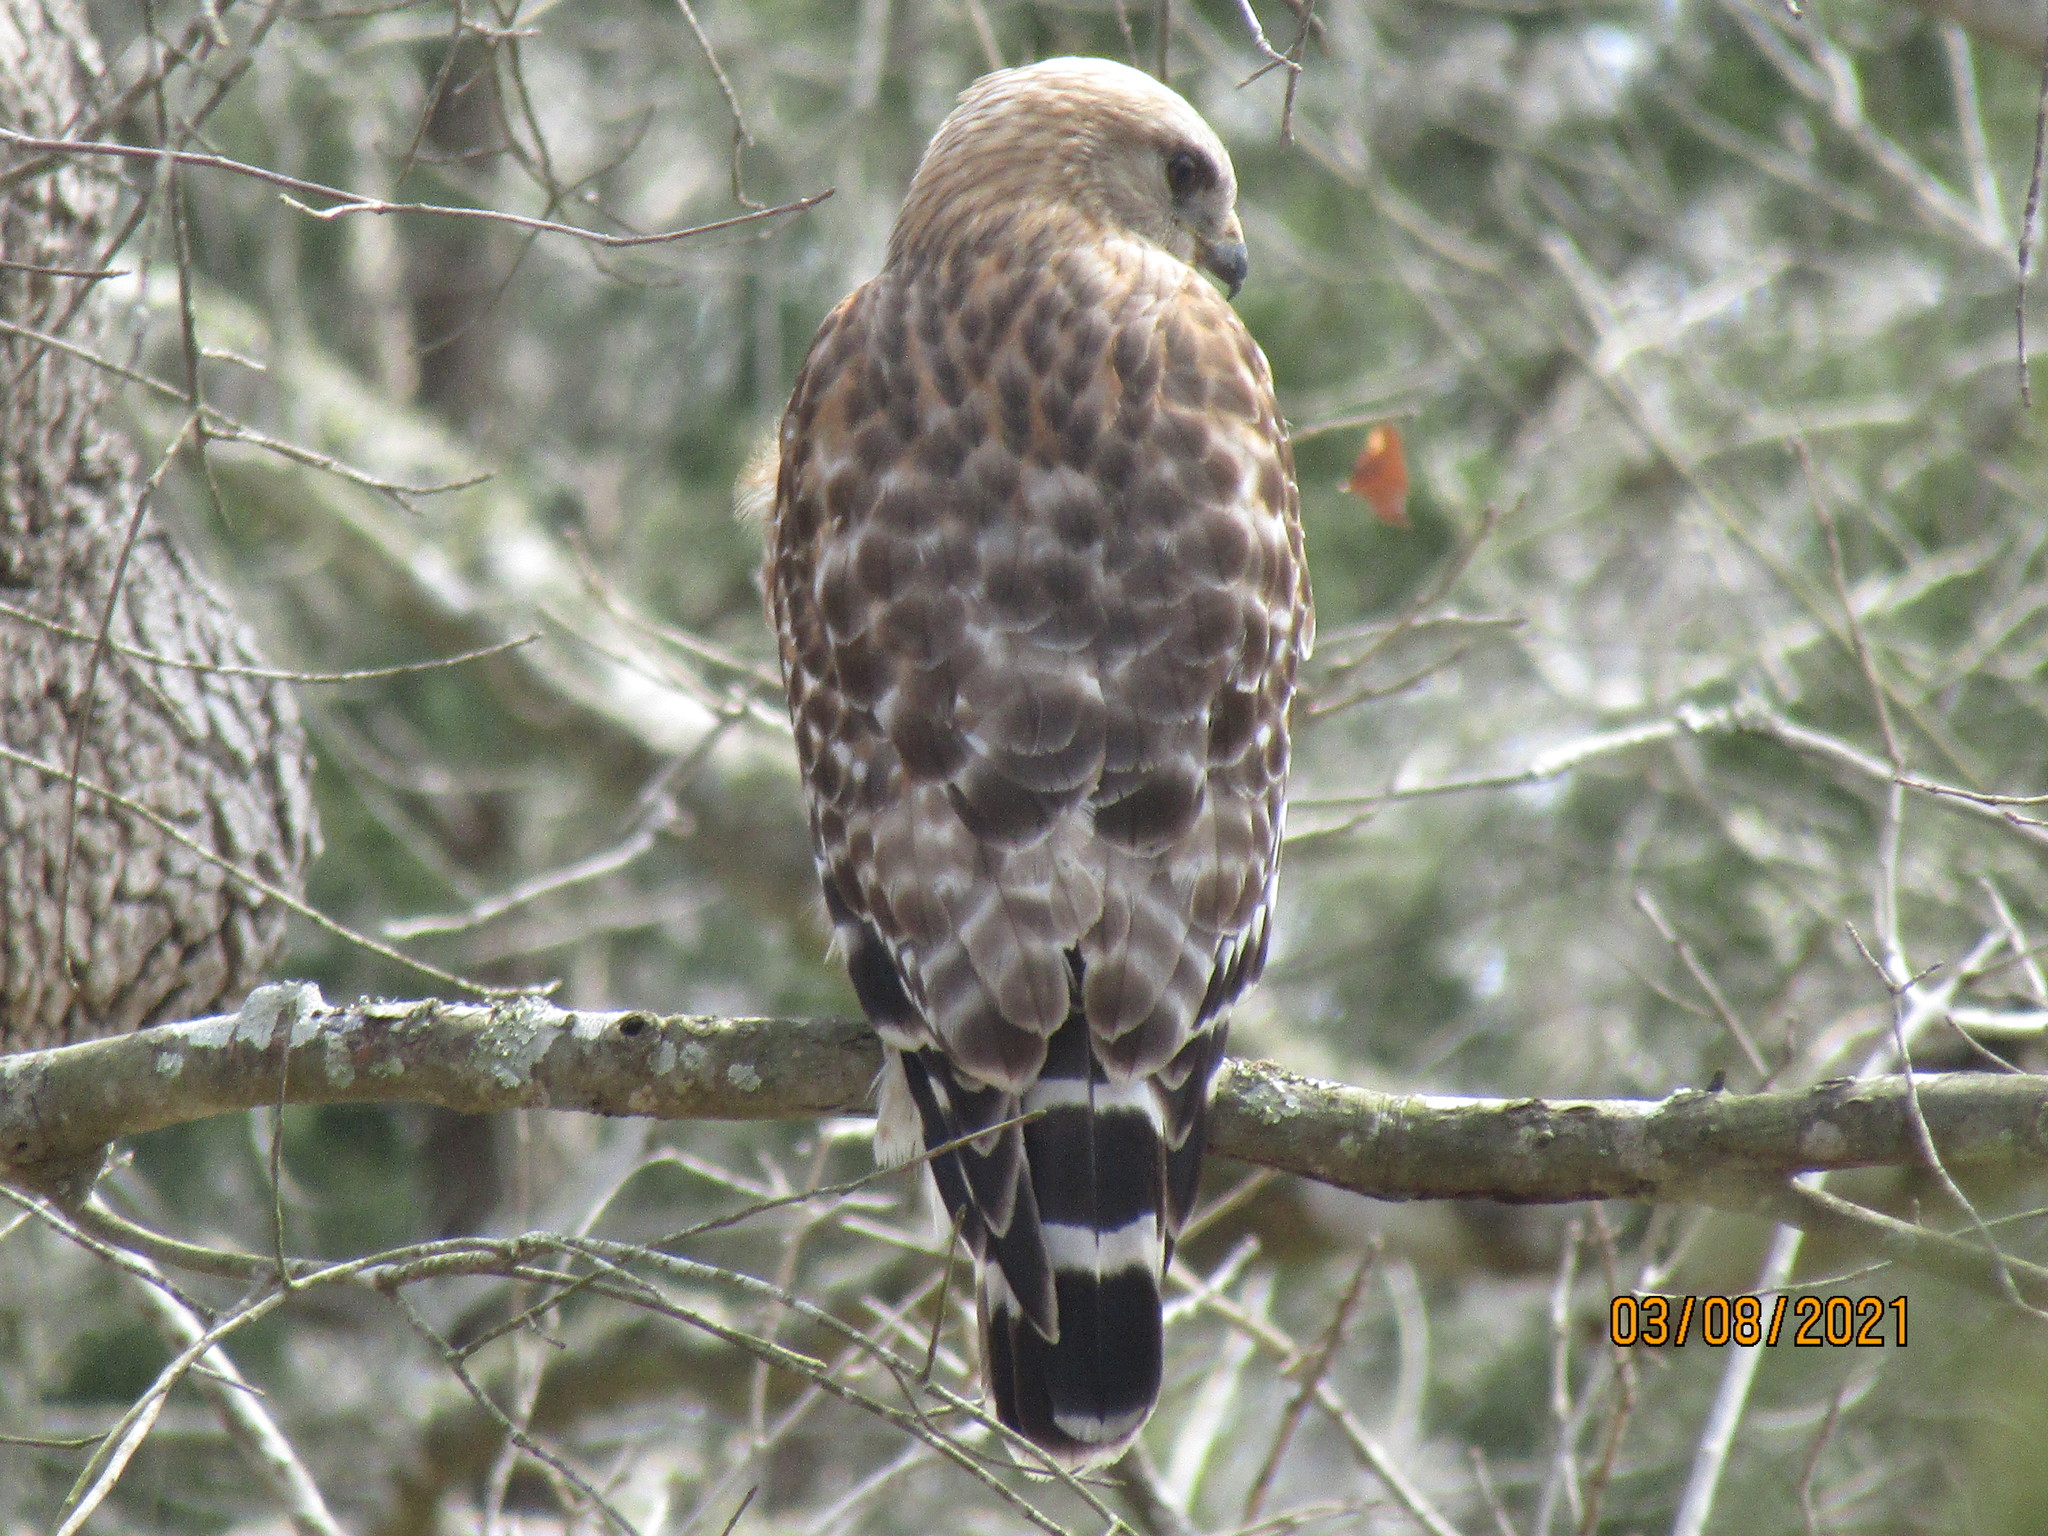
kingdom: Animalia
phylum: Chordata
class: Aves
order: Accipitriformes
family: Accipitridae
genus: Buteo
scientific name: Buteo lineatus
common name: Red-shouldered hawk
